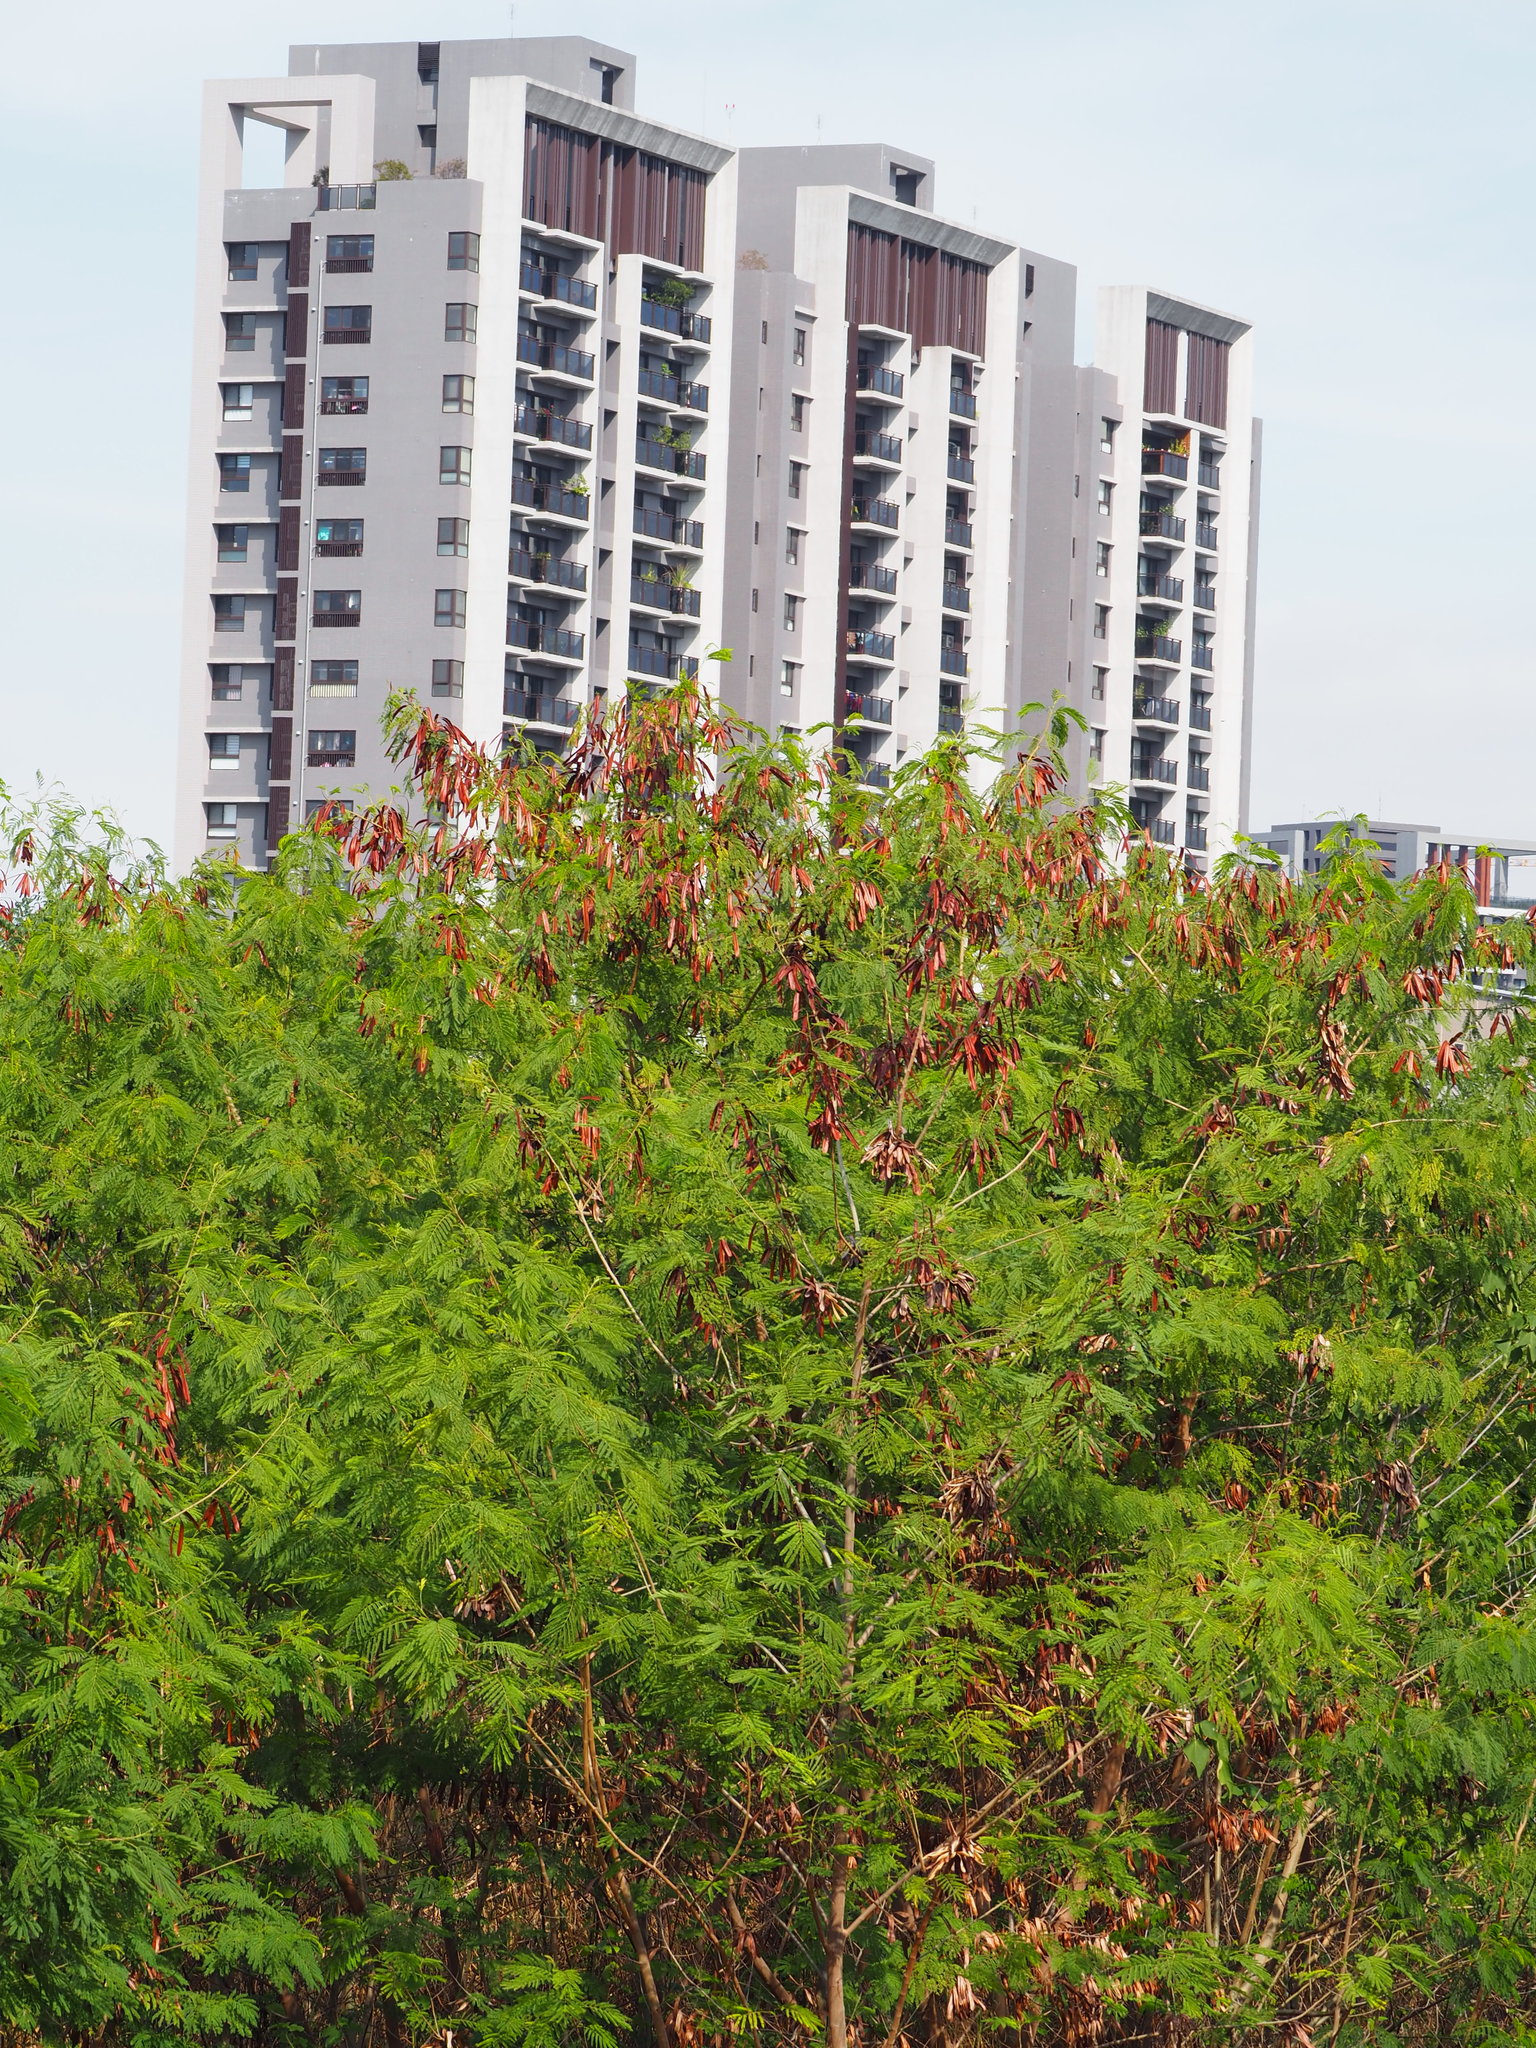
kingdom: Plantae
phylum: Tracheophyta
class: Magnoliopsida
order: Fabales
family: Fabaceae
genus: Leucaena
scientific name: Leucaena leucocephala
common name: White leadtree
